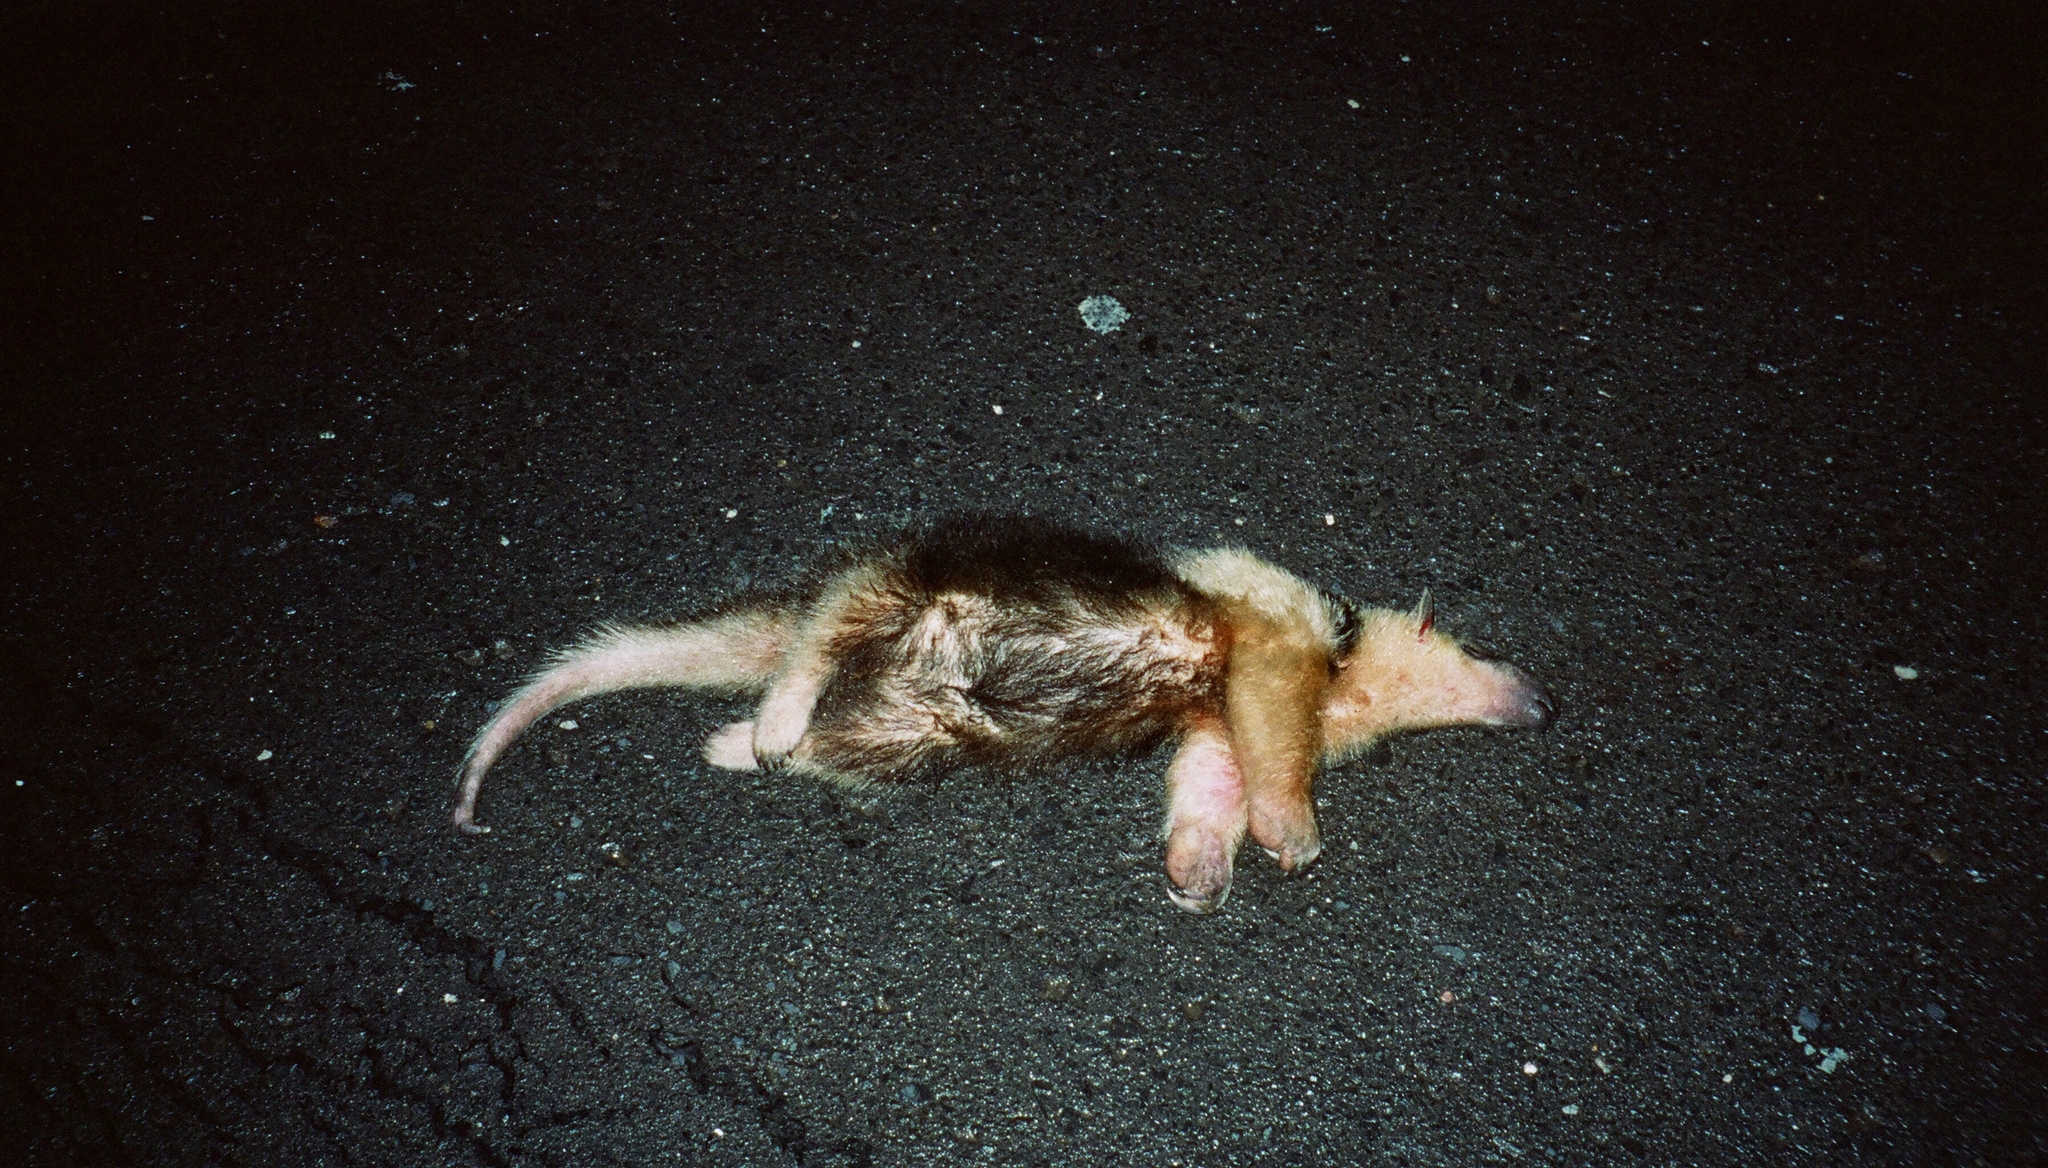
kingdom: Animalia
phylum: Chordata
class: Mammalia
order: Pilosa
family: Myrmecophagidae
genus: Tamandua
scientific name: Tamandua tetradactyla
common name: Southern tamandua
